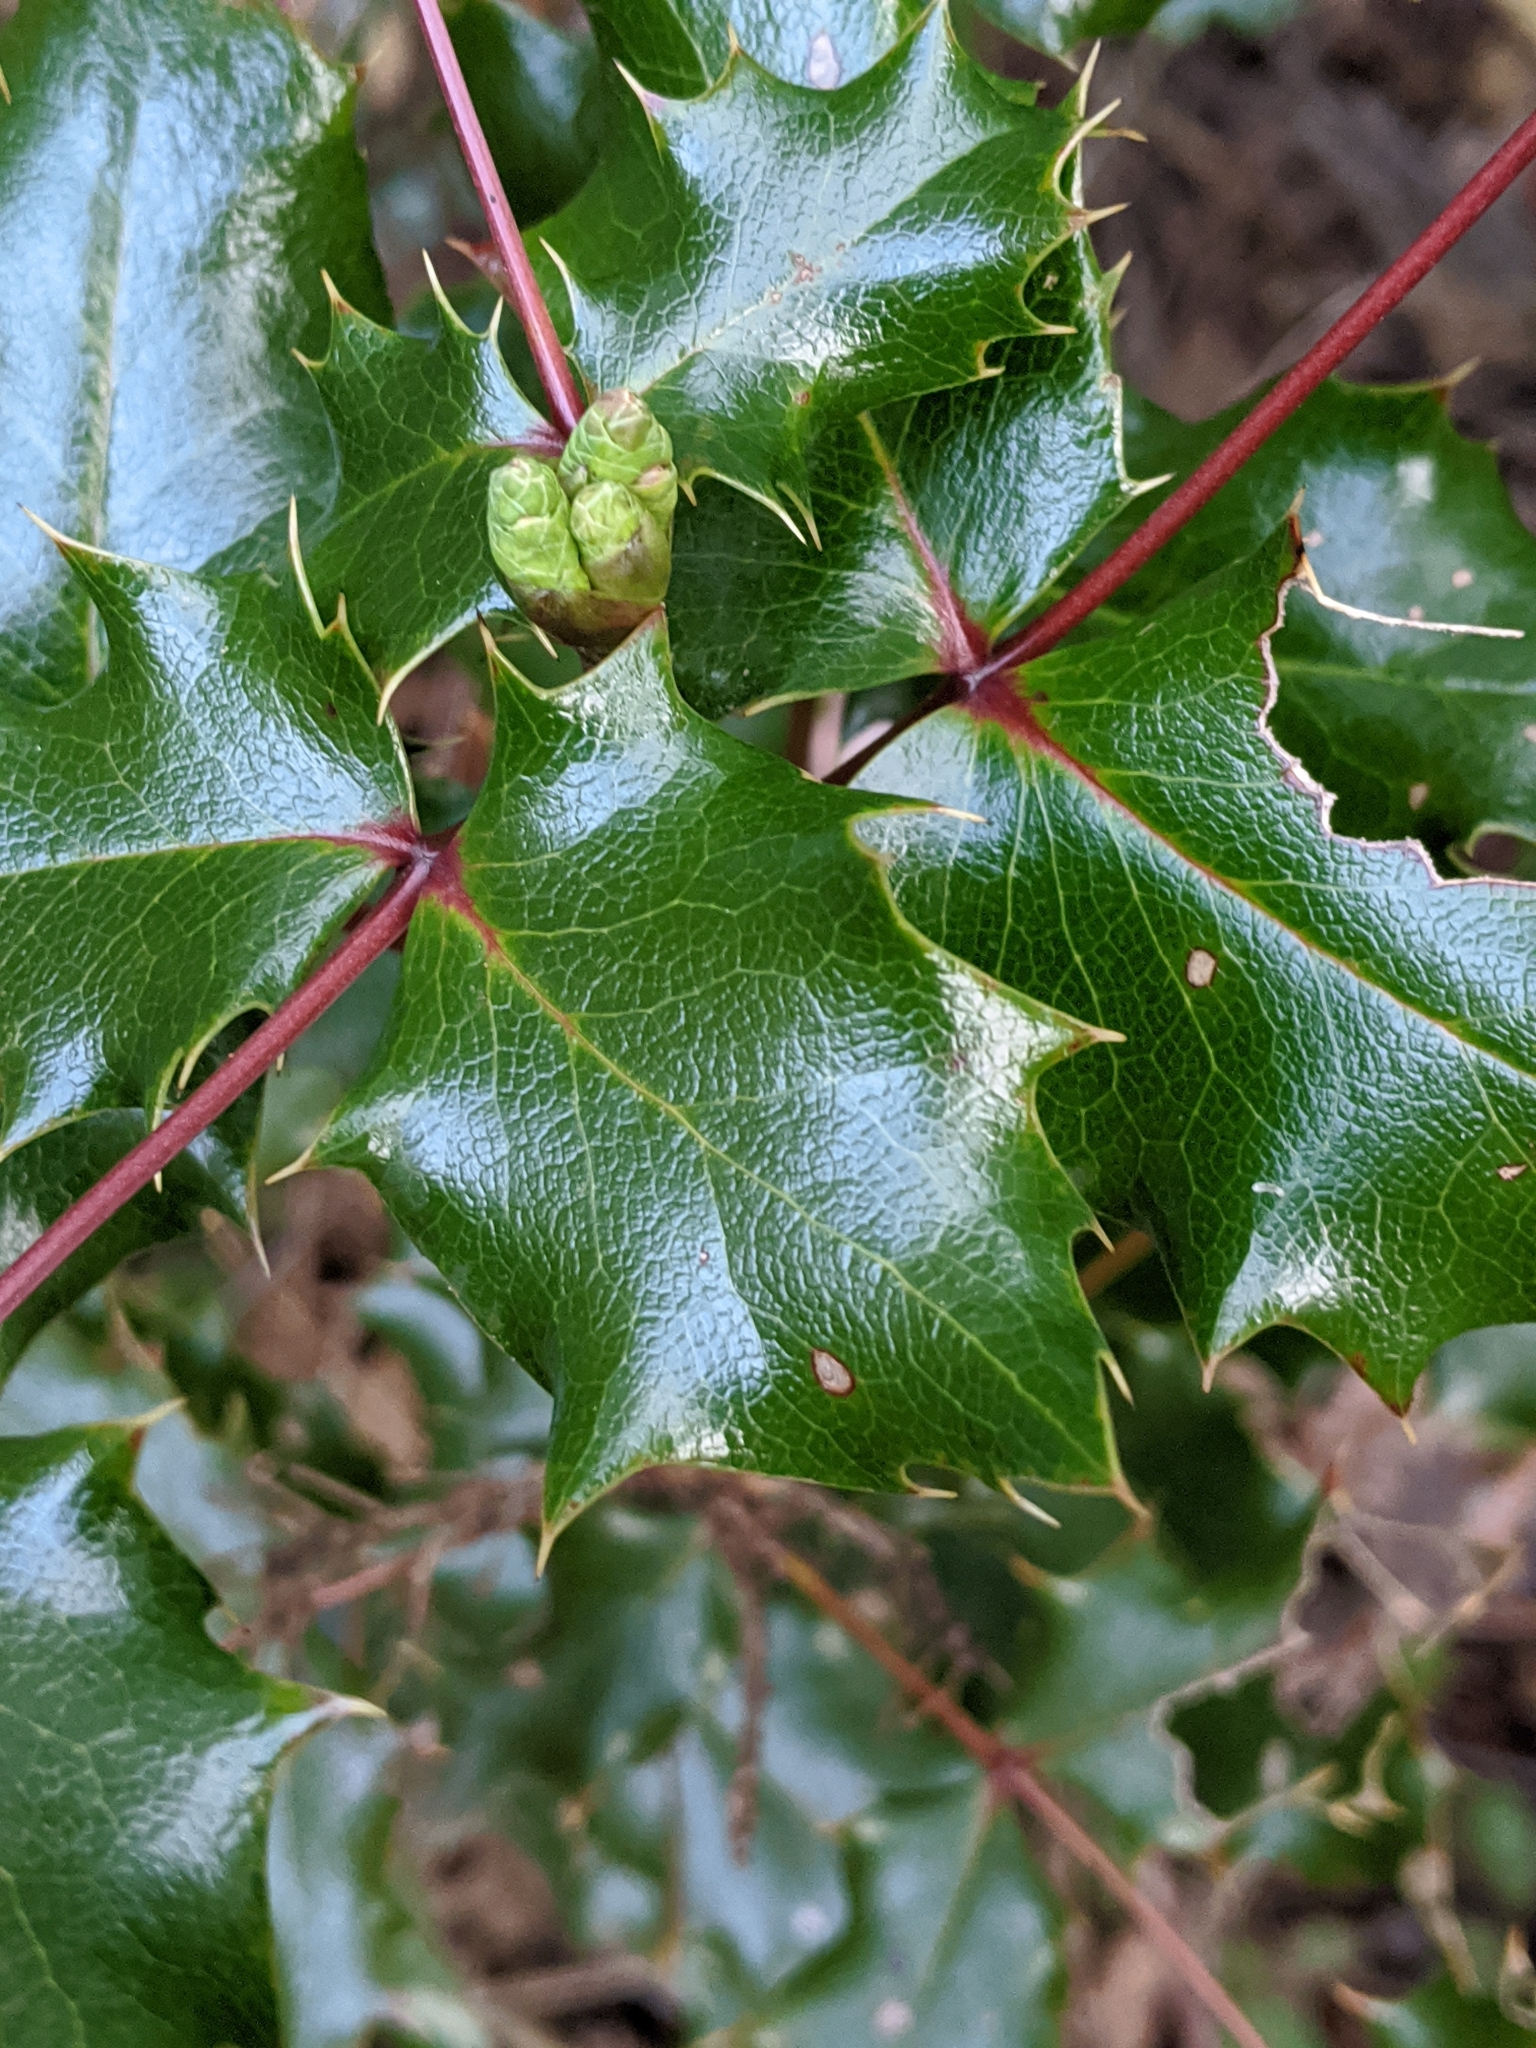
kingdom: Plantae
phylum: Tracheophyta
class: Magnoliopsida
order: Ranunculales
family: Berberidaceae
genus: Mahonia
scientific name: Mahonia aquifolium
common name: Oregon-grape
